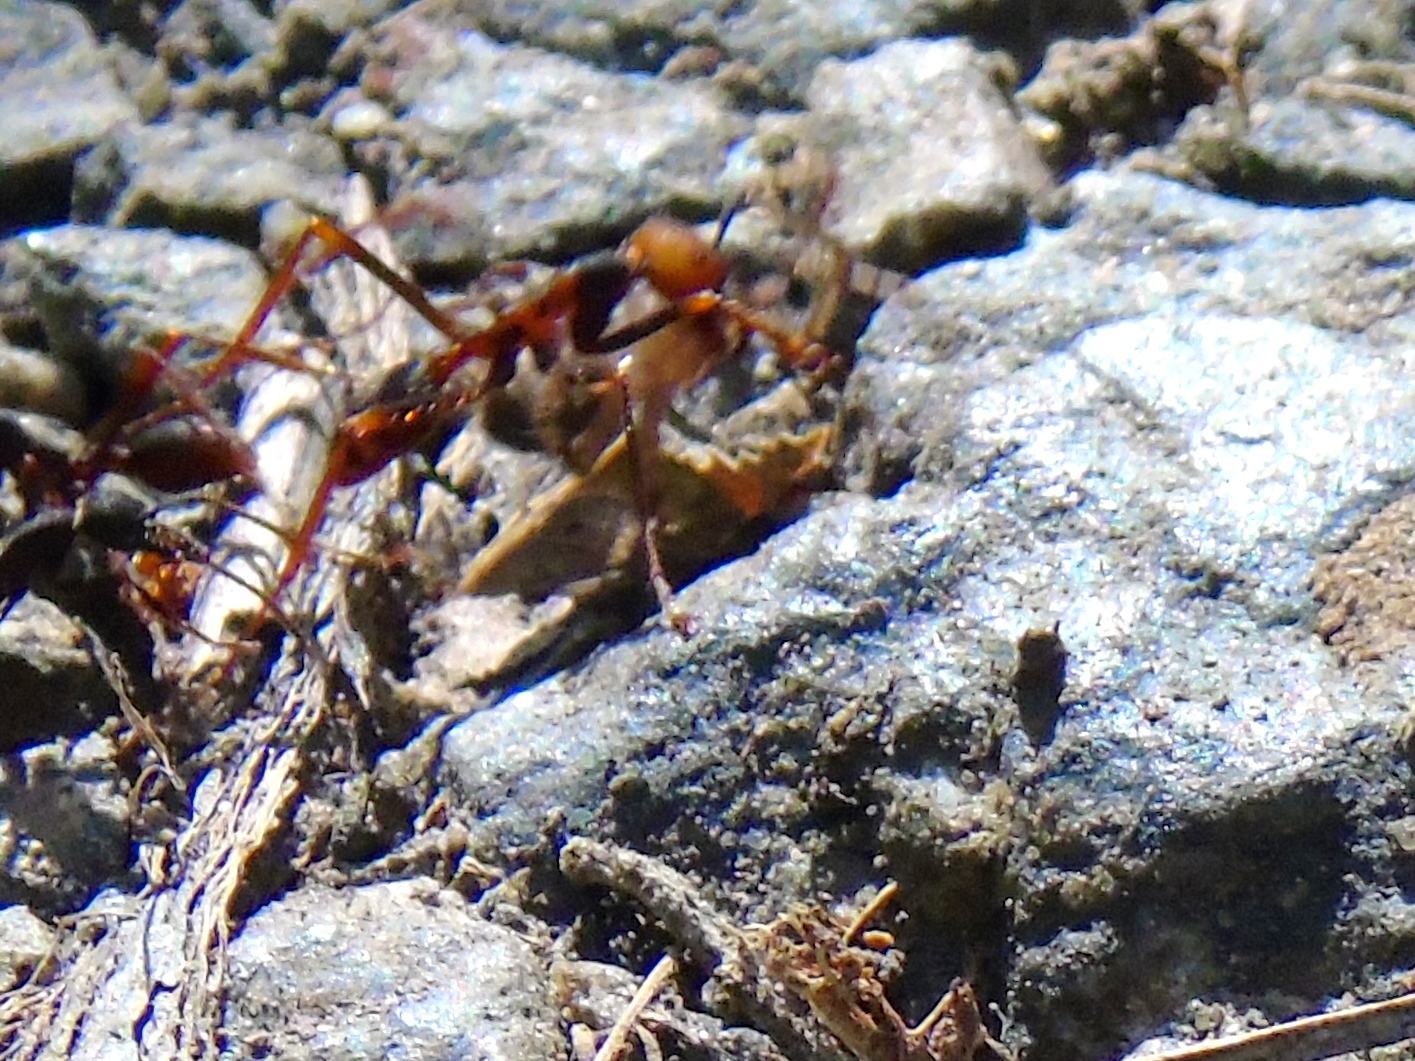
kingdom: Animalia
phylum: Arthropoda
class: Insecta
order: Hymenoptera
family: Formicidae
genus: Eciton
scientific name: Eciton
